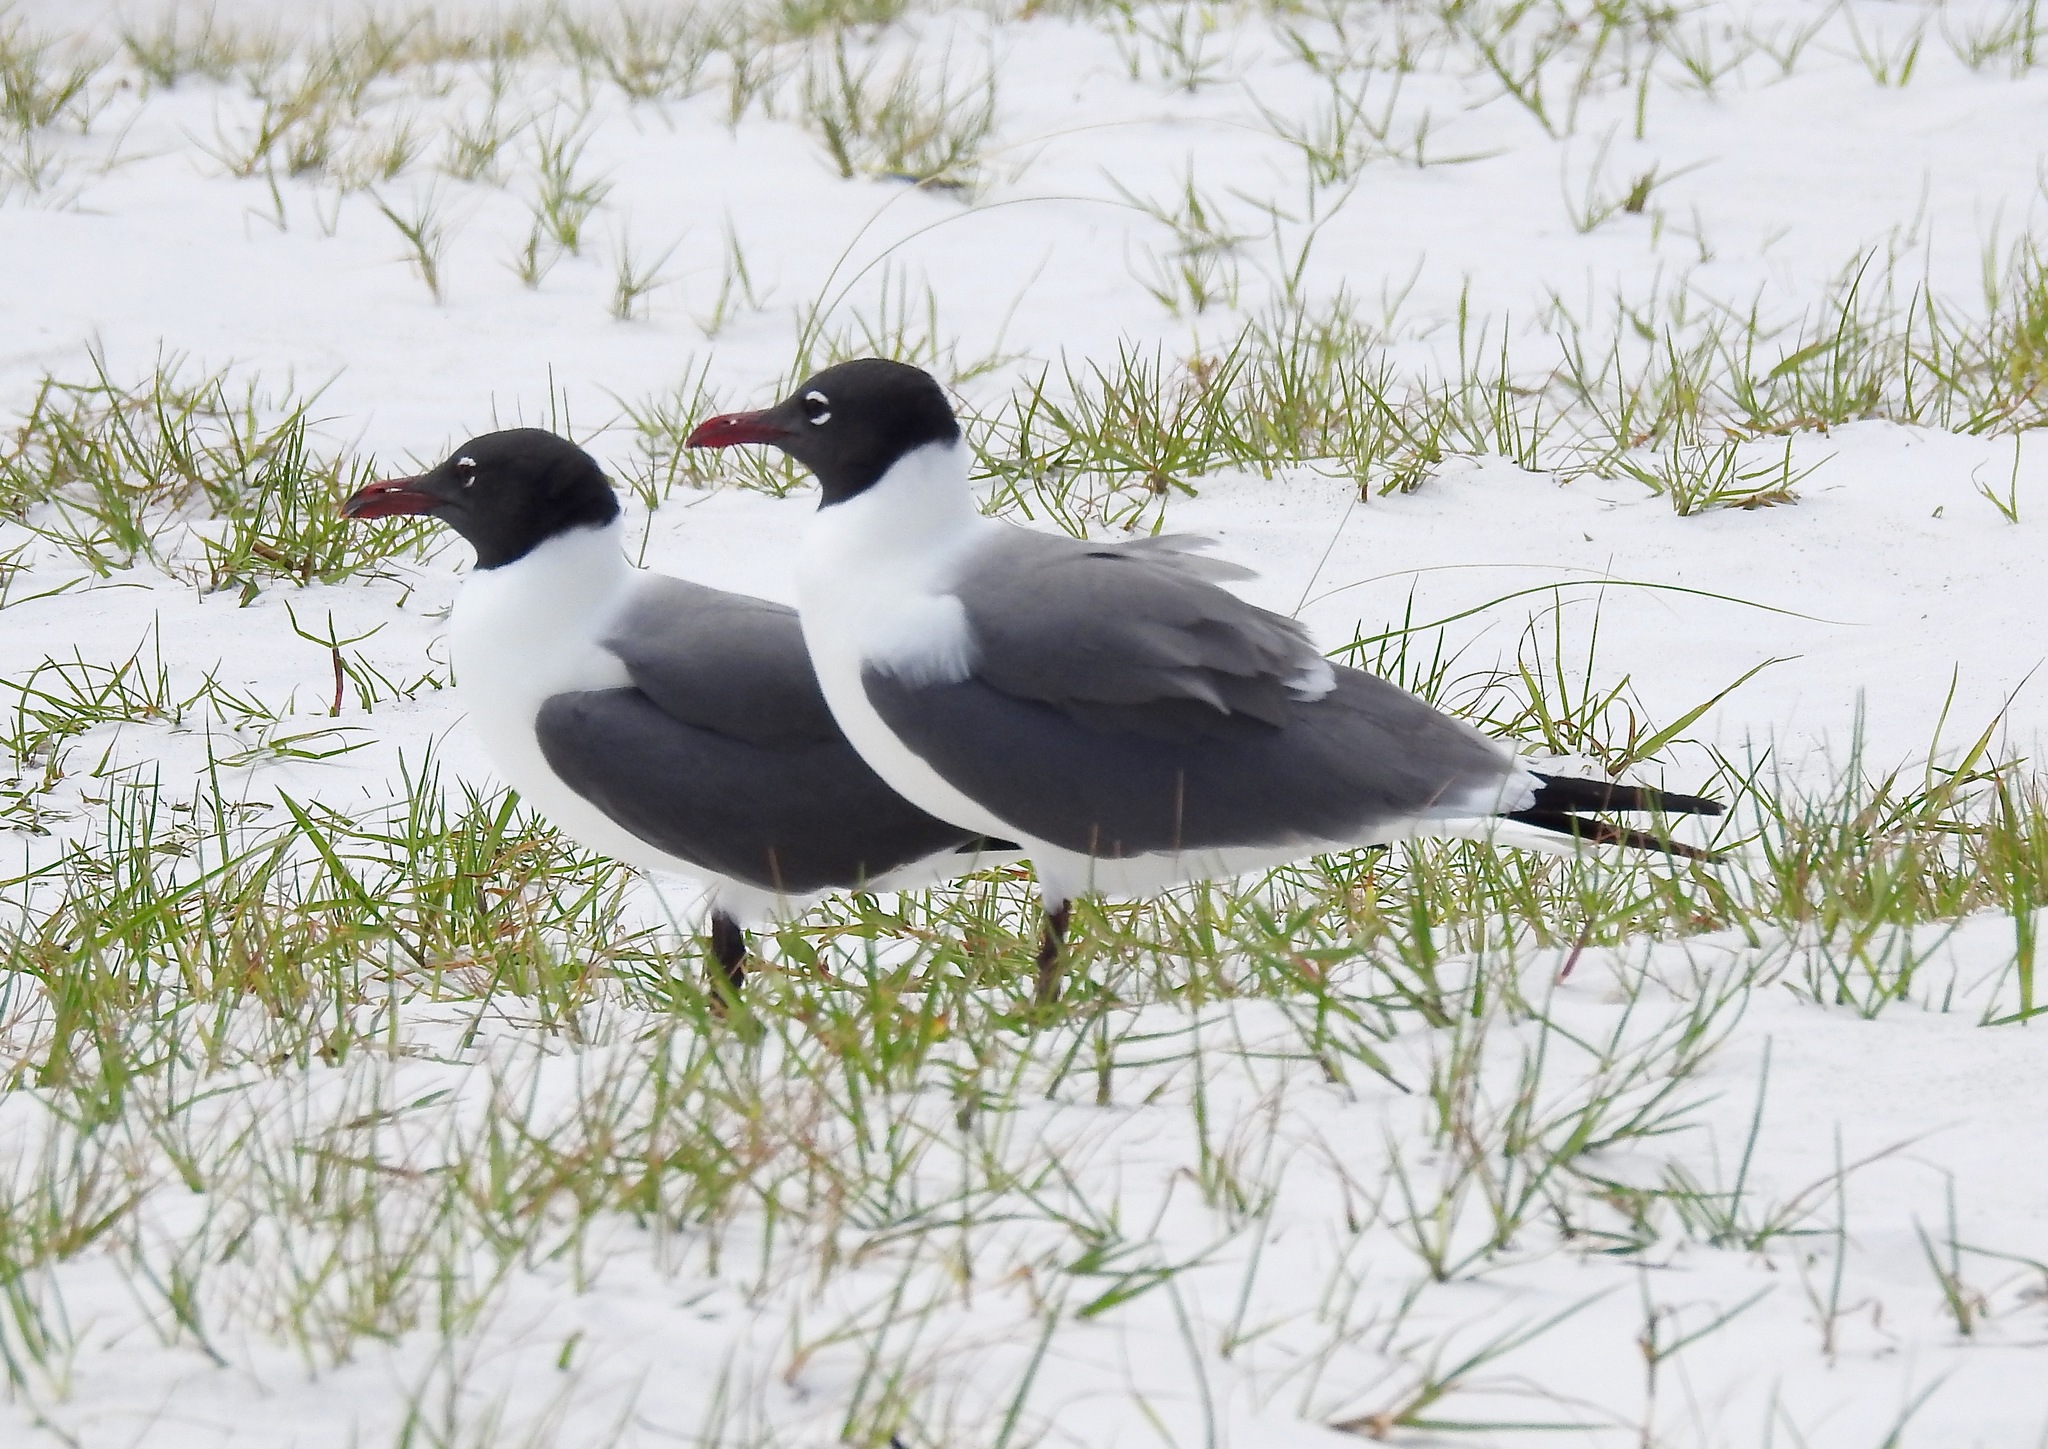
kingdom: Animalia
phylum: Chordata
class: Aves
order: Charadriiformes
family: Laridae
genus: Leucophaeus
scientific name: Leucophaeus atricilla
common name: Laughing gull
